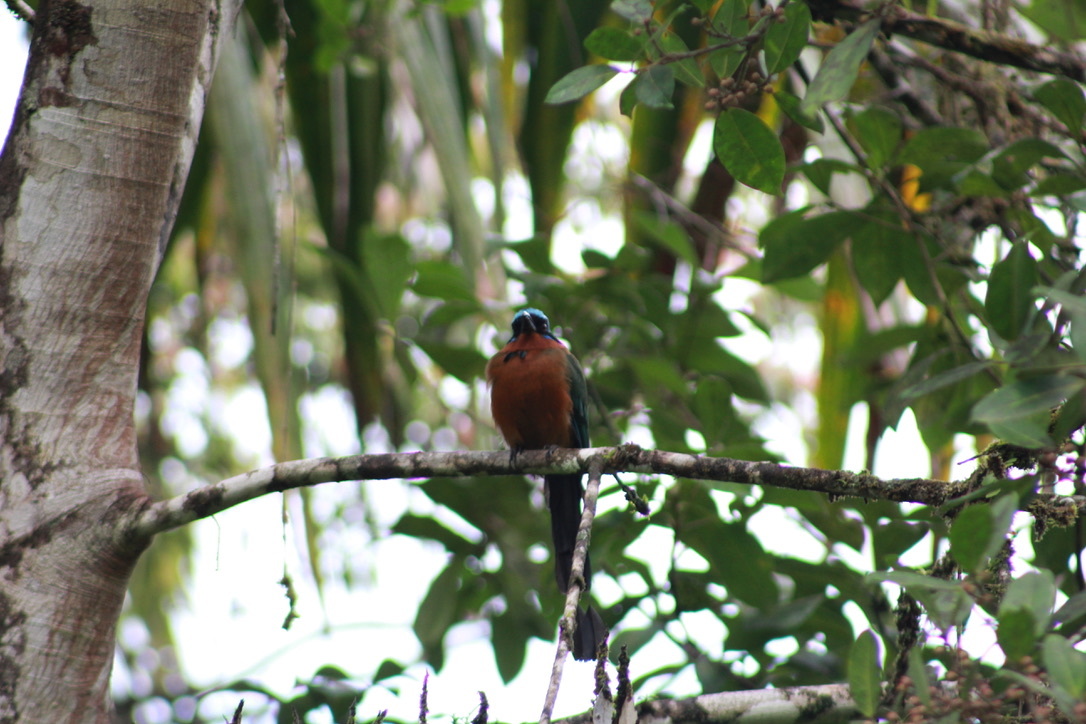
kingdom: Animalia
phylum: Chordata
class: Aves
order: Coraciiformes
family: Momotidae
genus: Momotus
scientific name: Momotus bahamensis
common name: Trinidad motmot
